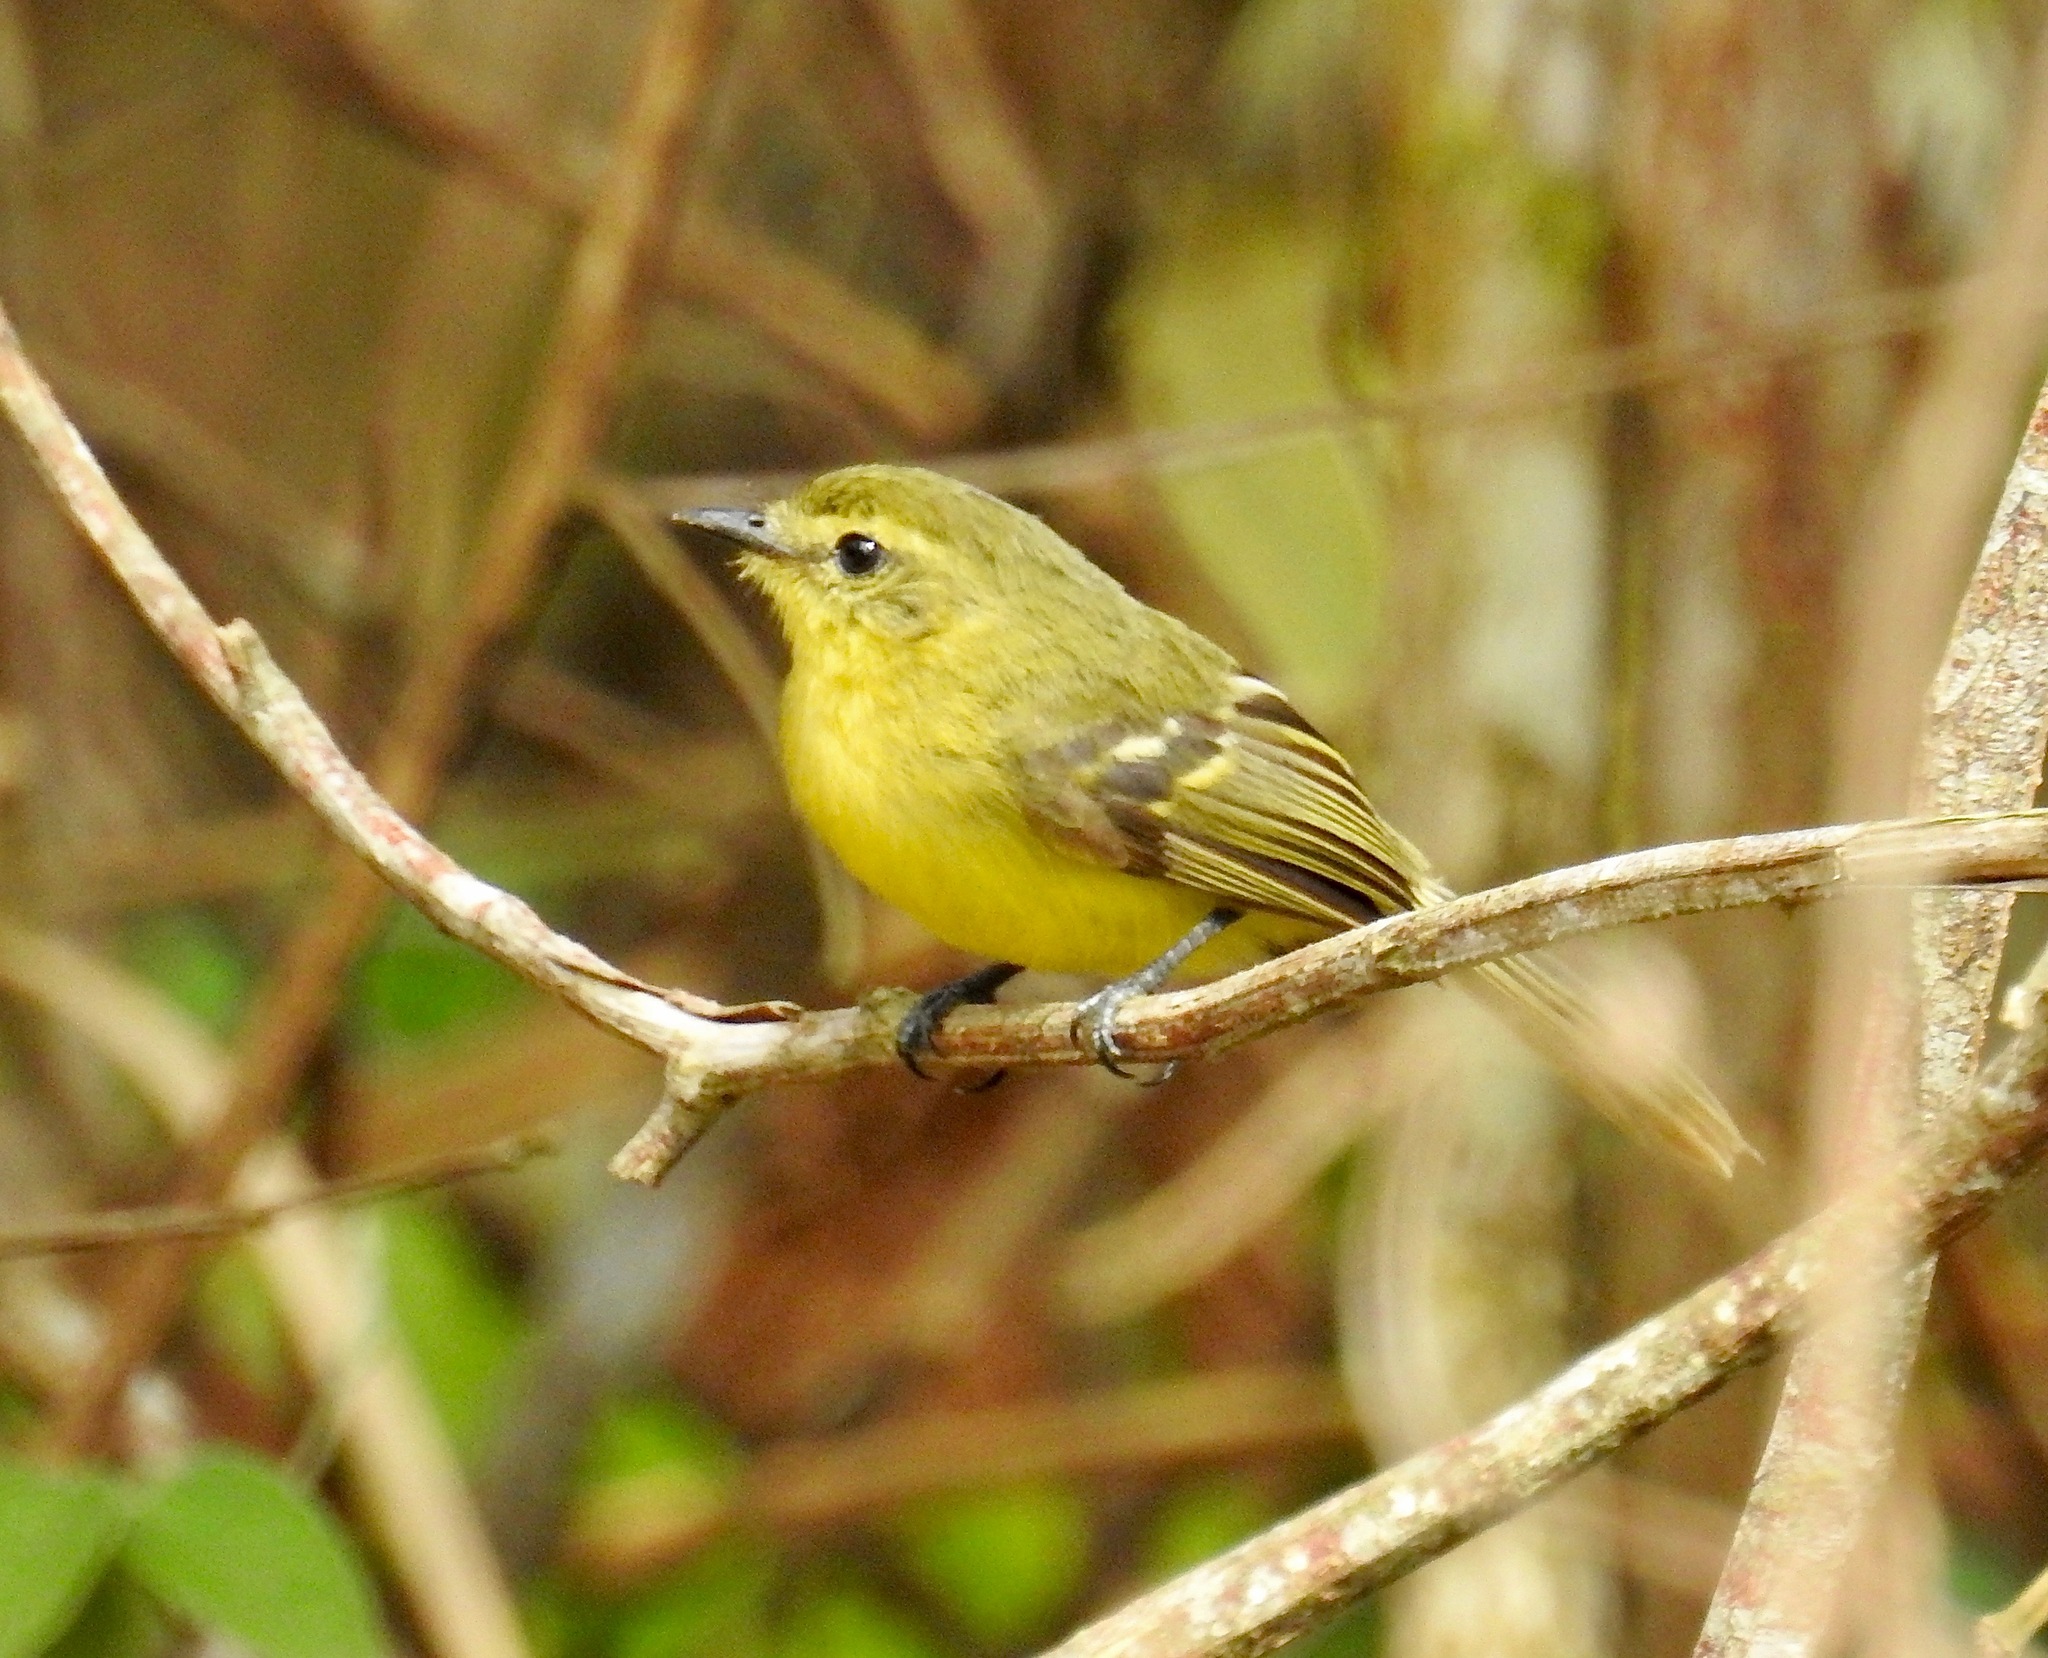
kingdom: Animalia
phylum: Chordata
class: Aves
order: Passeriformes
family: Tyrannidae
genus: Capsiempis
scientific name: Capsiempis flaveola
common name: Yellow tyrannulet
